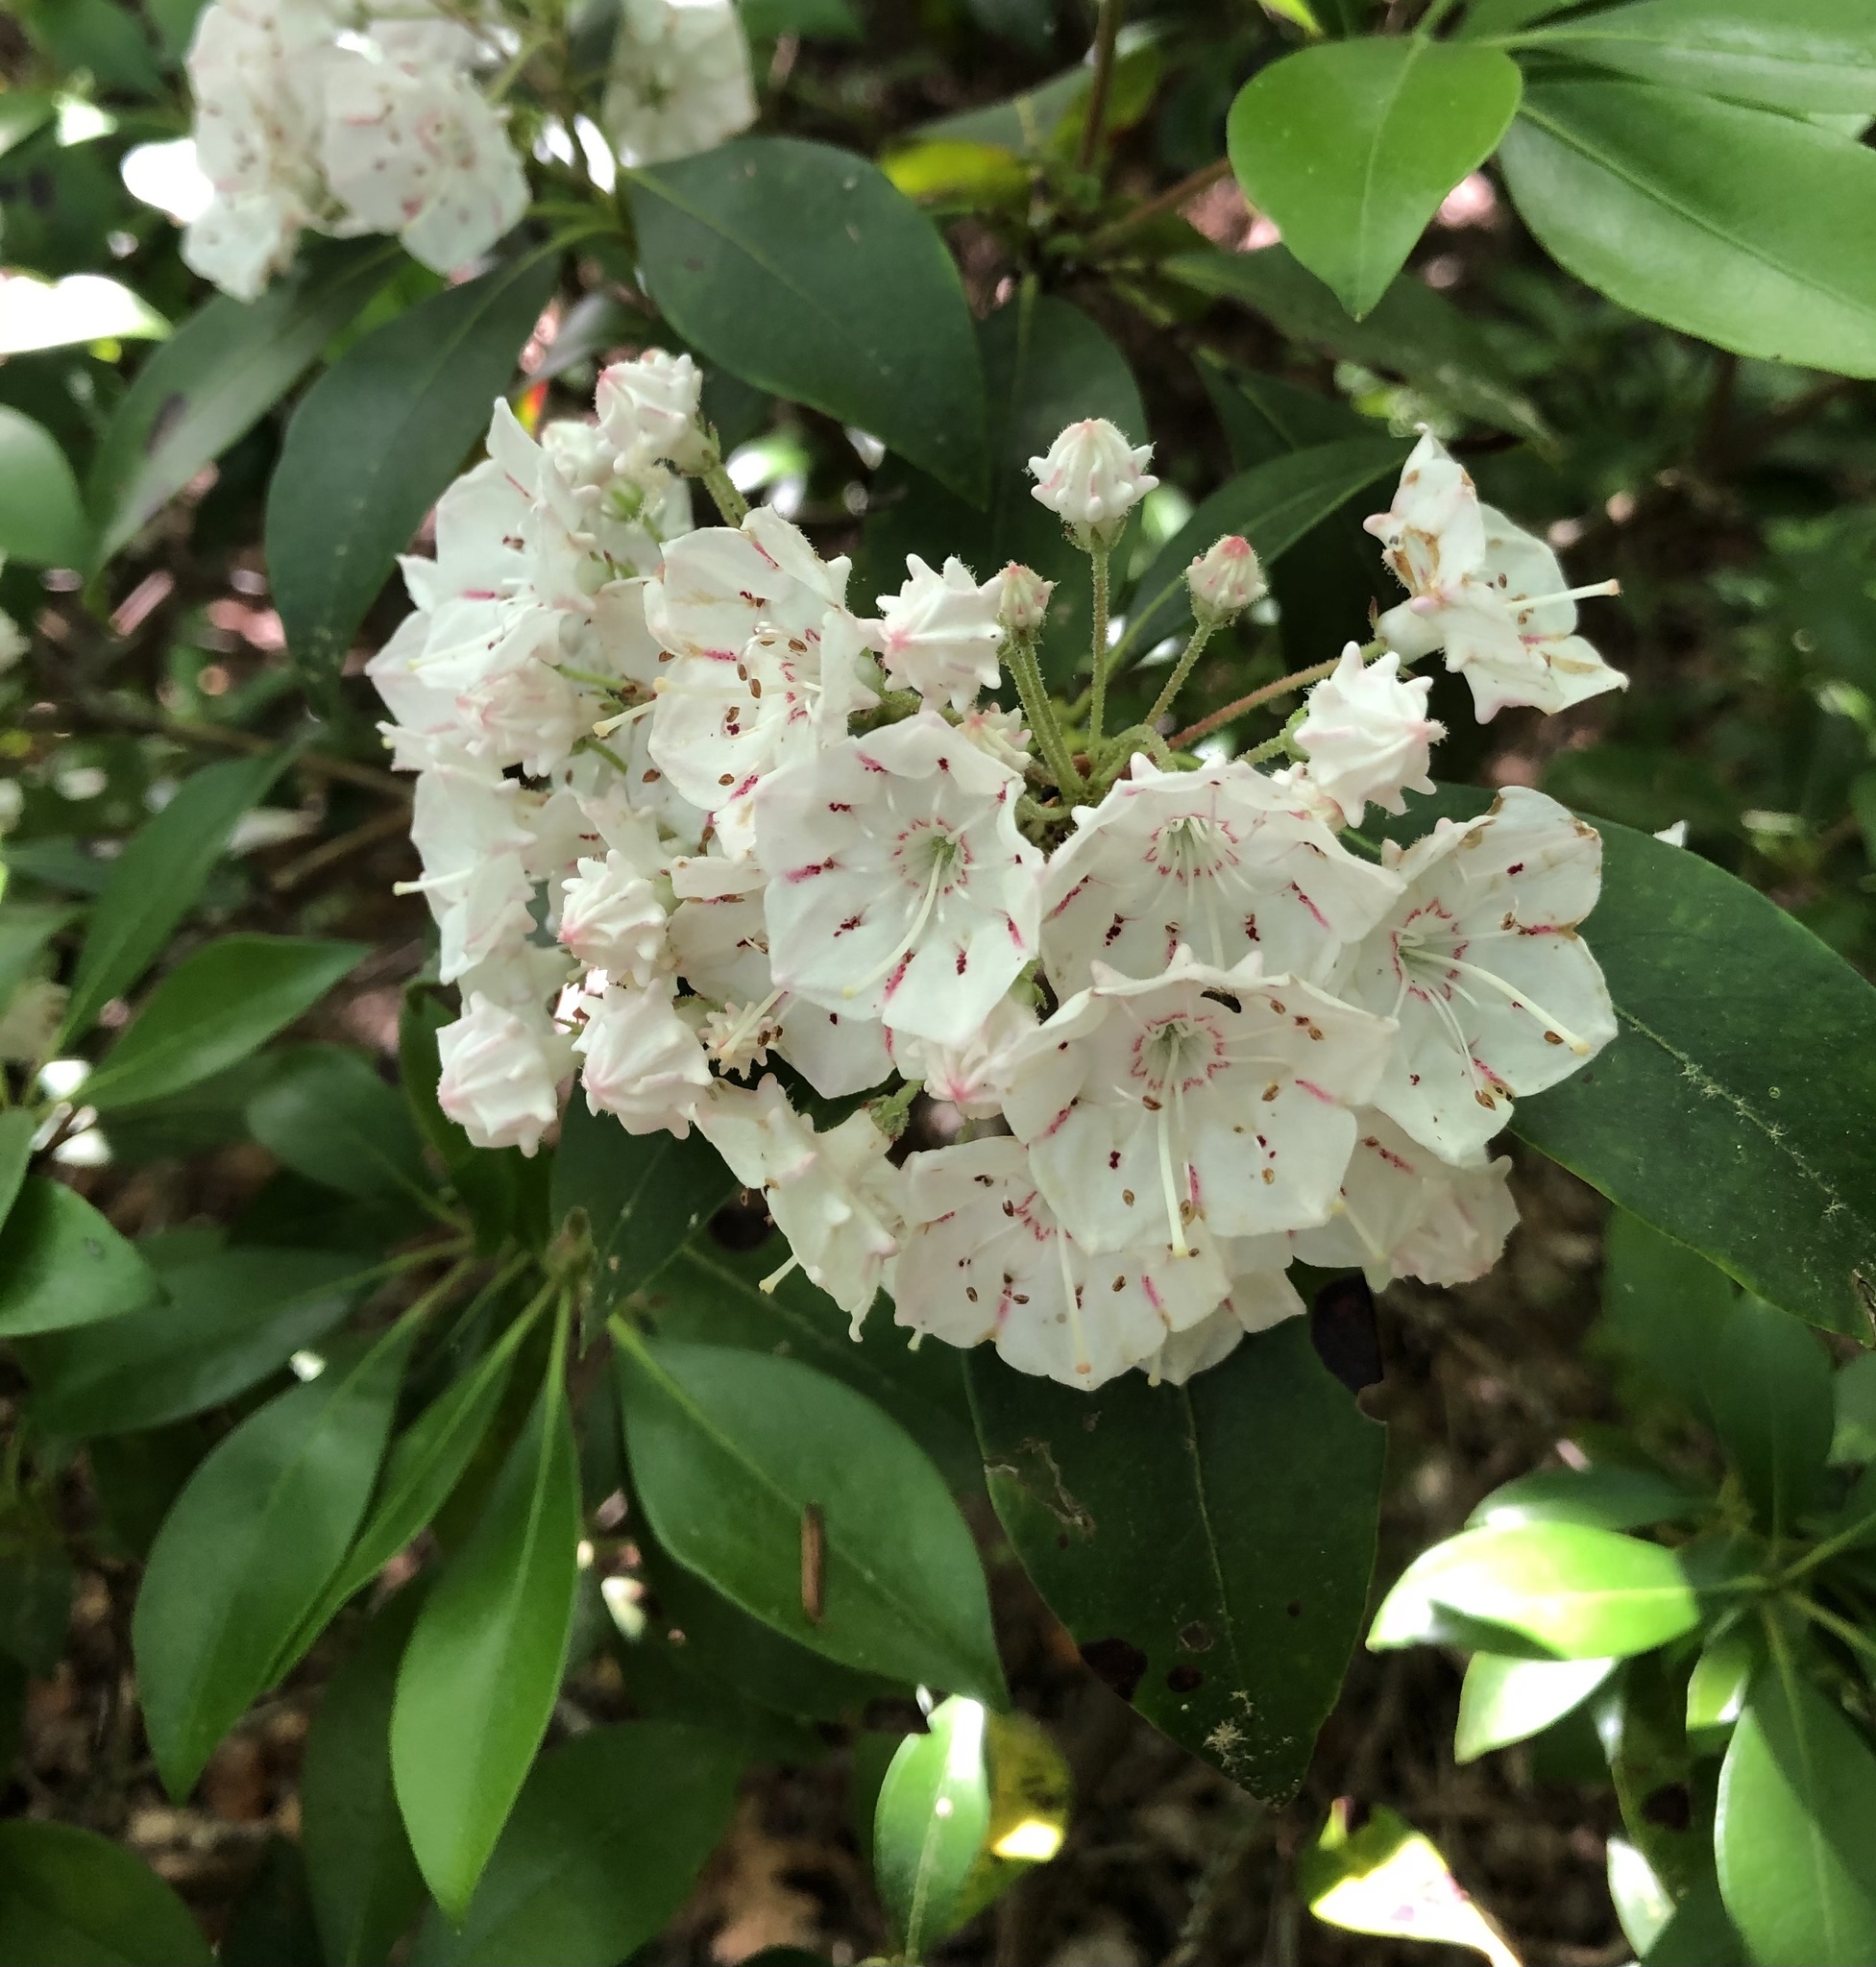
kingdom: Plantae
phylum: Tracheophyta
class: Magnoliopsida
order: Ericales
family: Ericaceae
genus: Kalmia
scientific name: Kalmia latifolia
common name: Mountain-laurel
